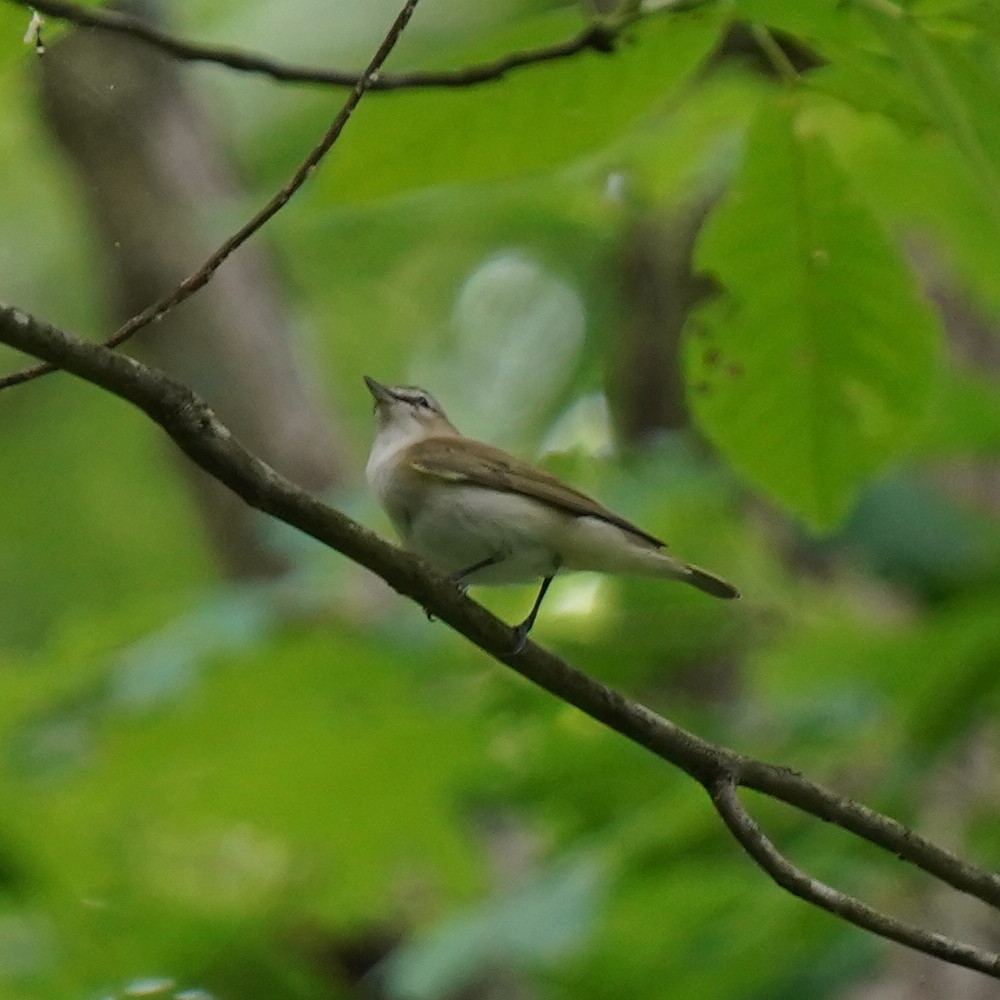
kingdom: Animalia
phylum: Chordata
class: Aves
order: Passeriformes
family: Vireonidae
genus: Vireo
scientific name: Vireo olivaceus
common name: Red-eyed vireo
